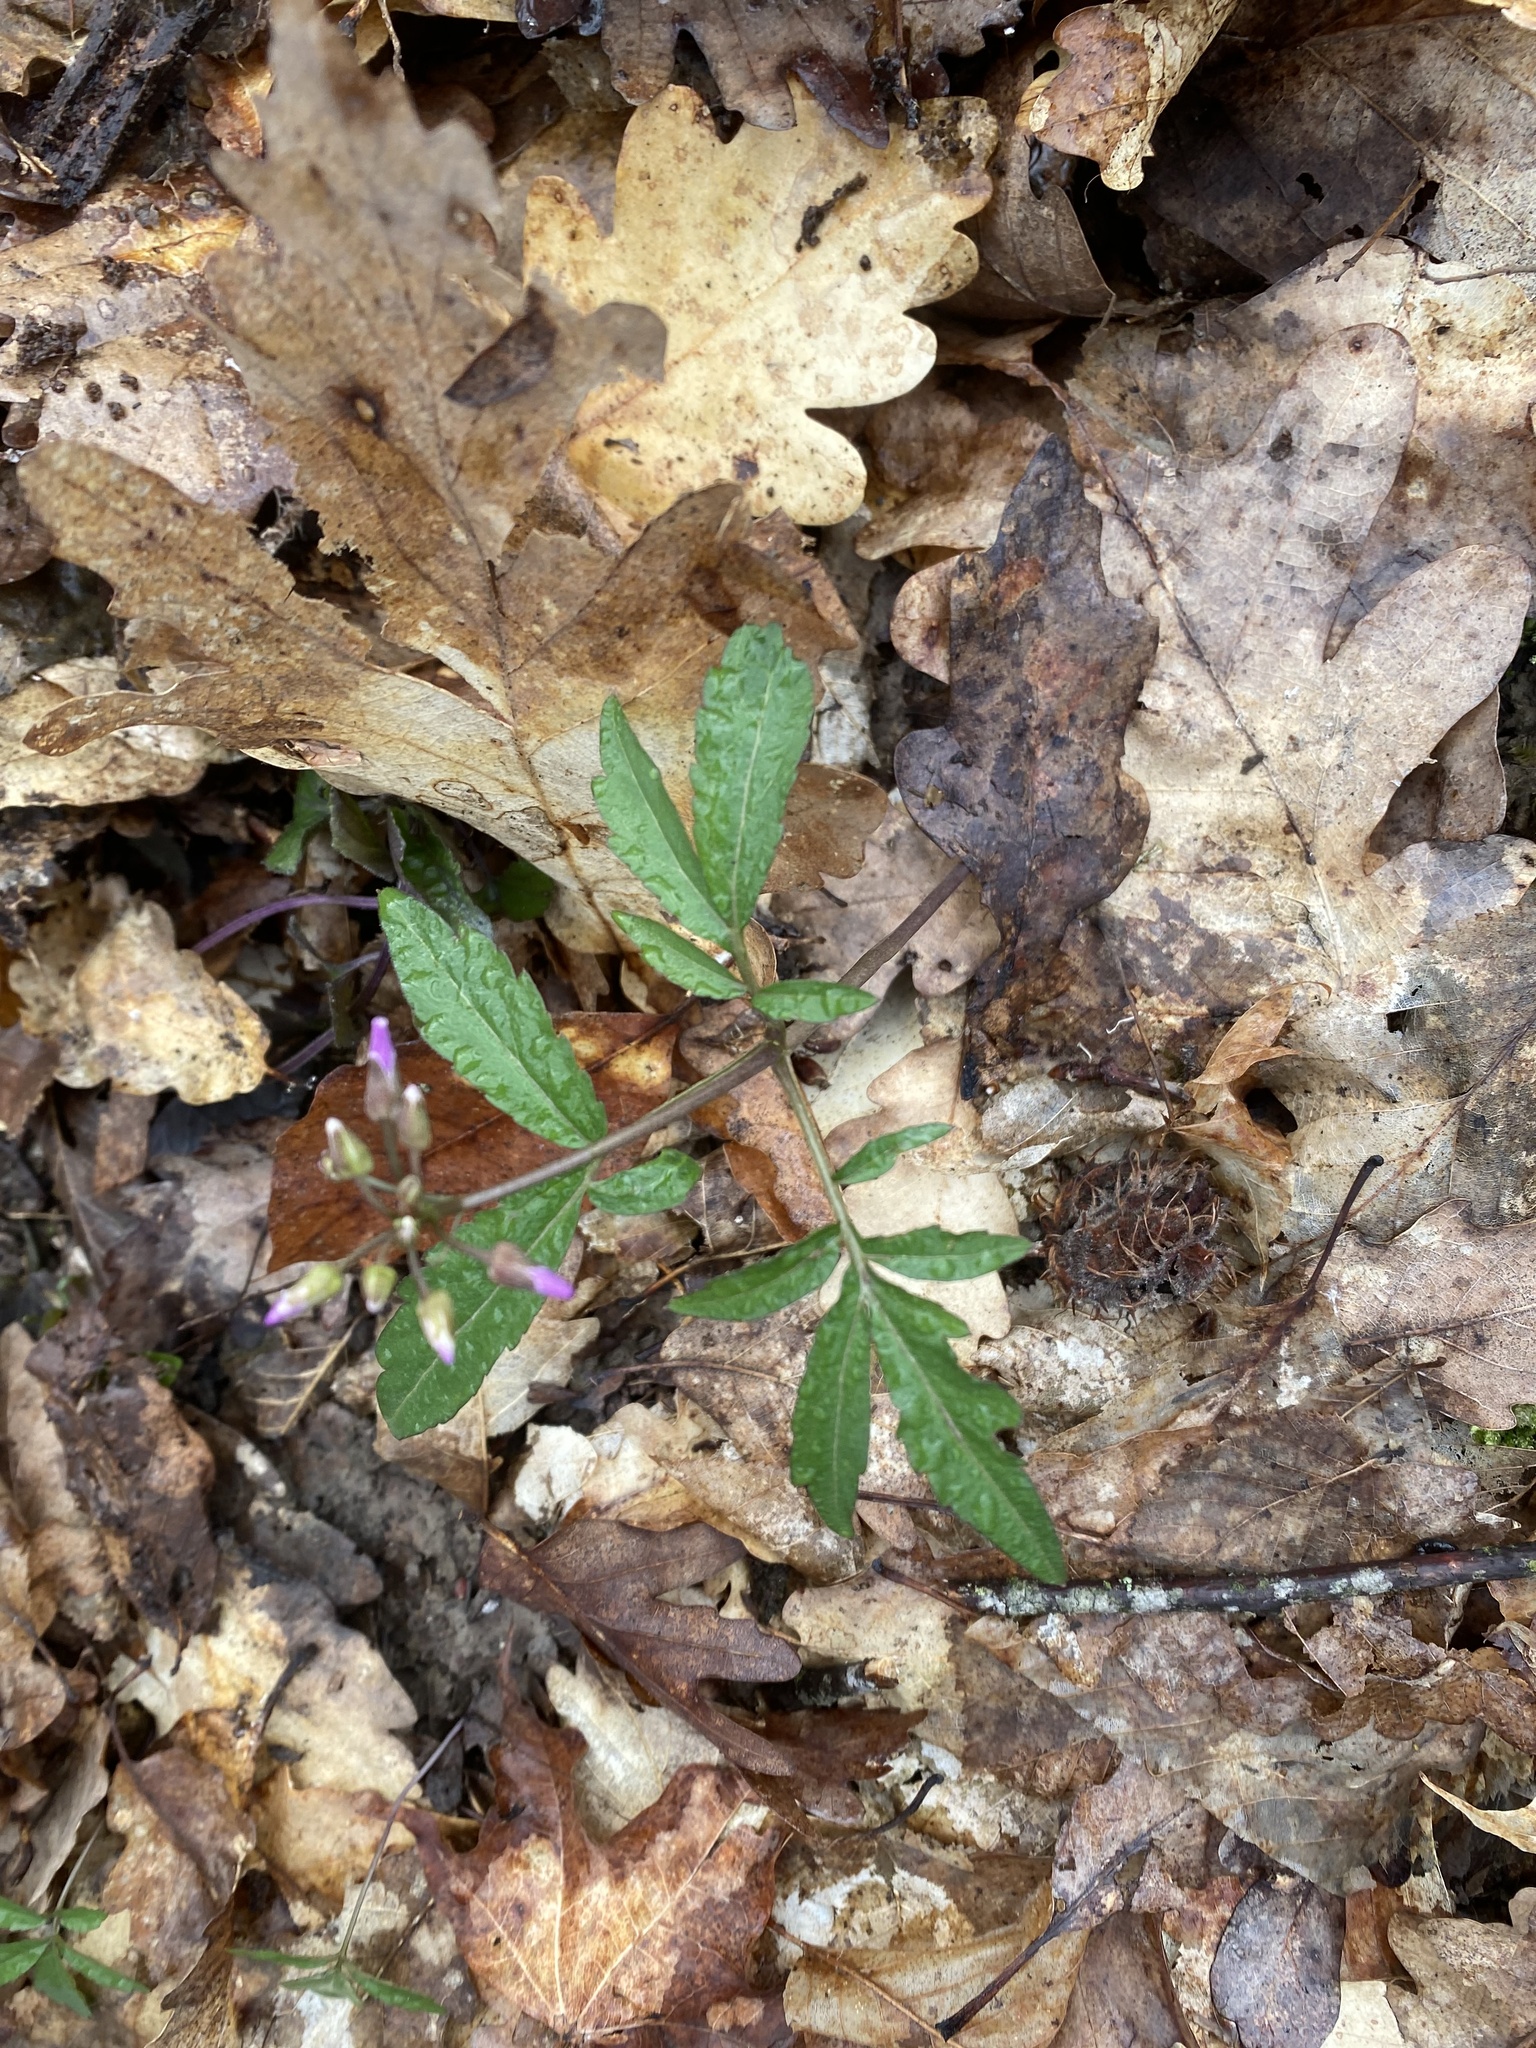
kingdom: Plantae
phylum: Tracheophyta
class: Magnoliopsida
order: Brassicales
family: Brassicaceae
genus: Cardamine
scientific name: Cardamine quinquefolia
